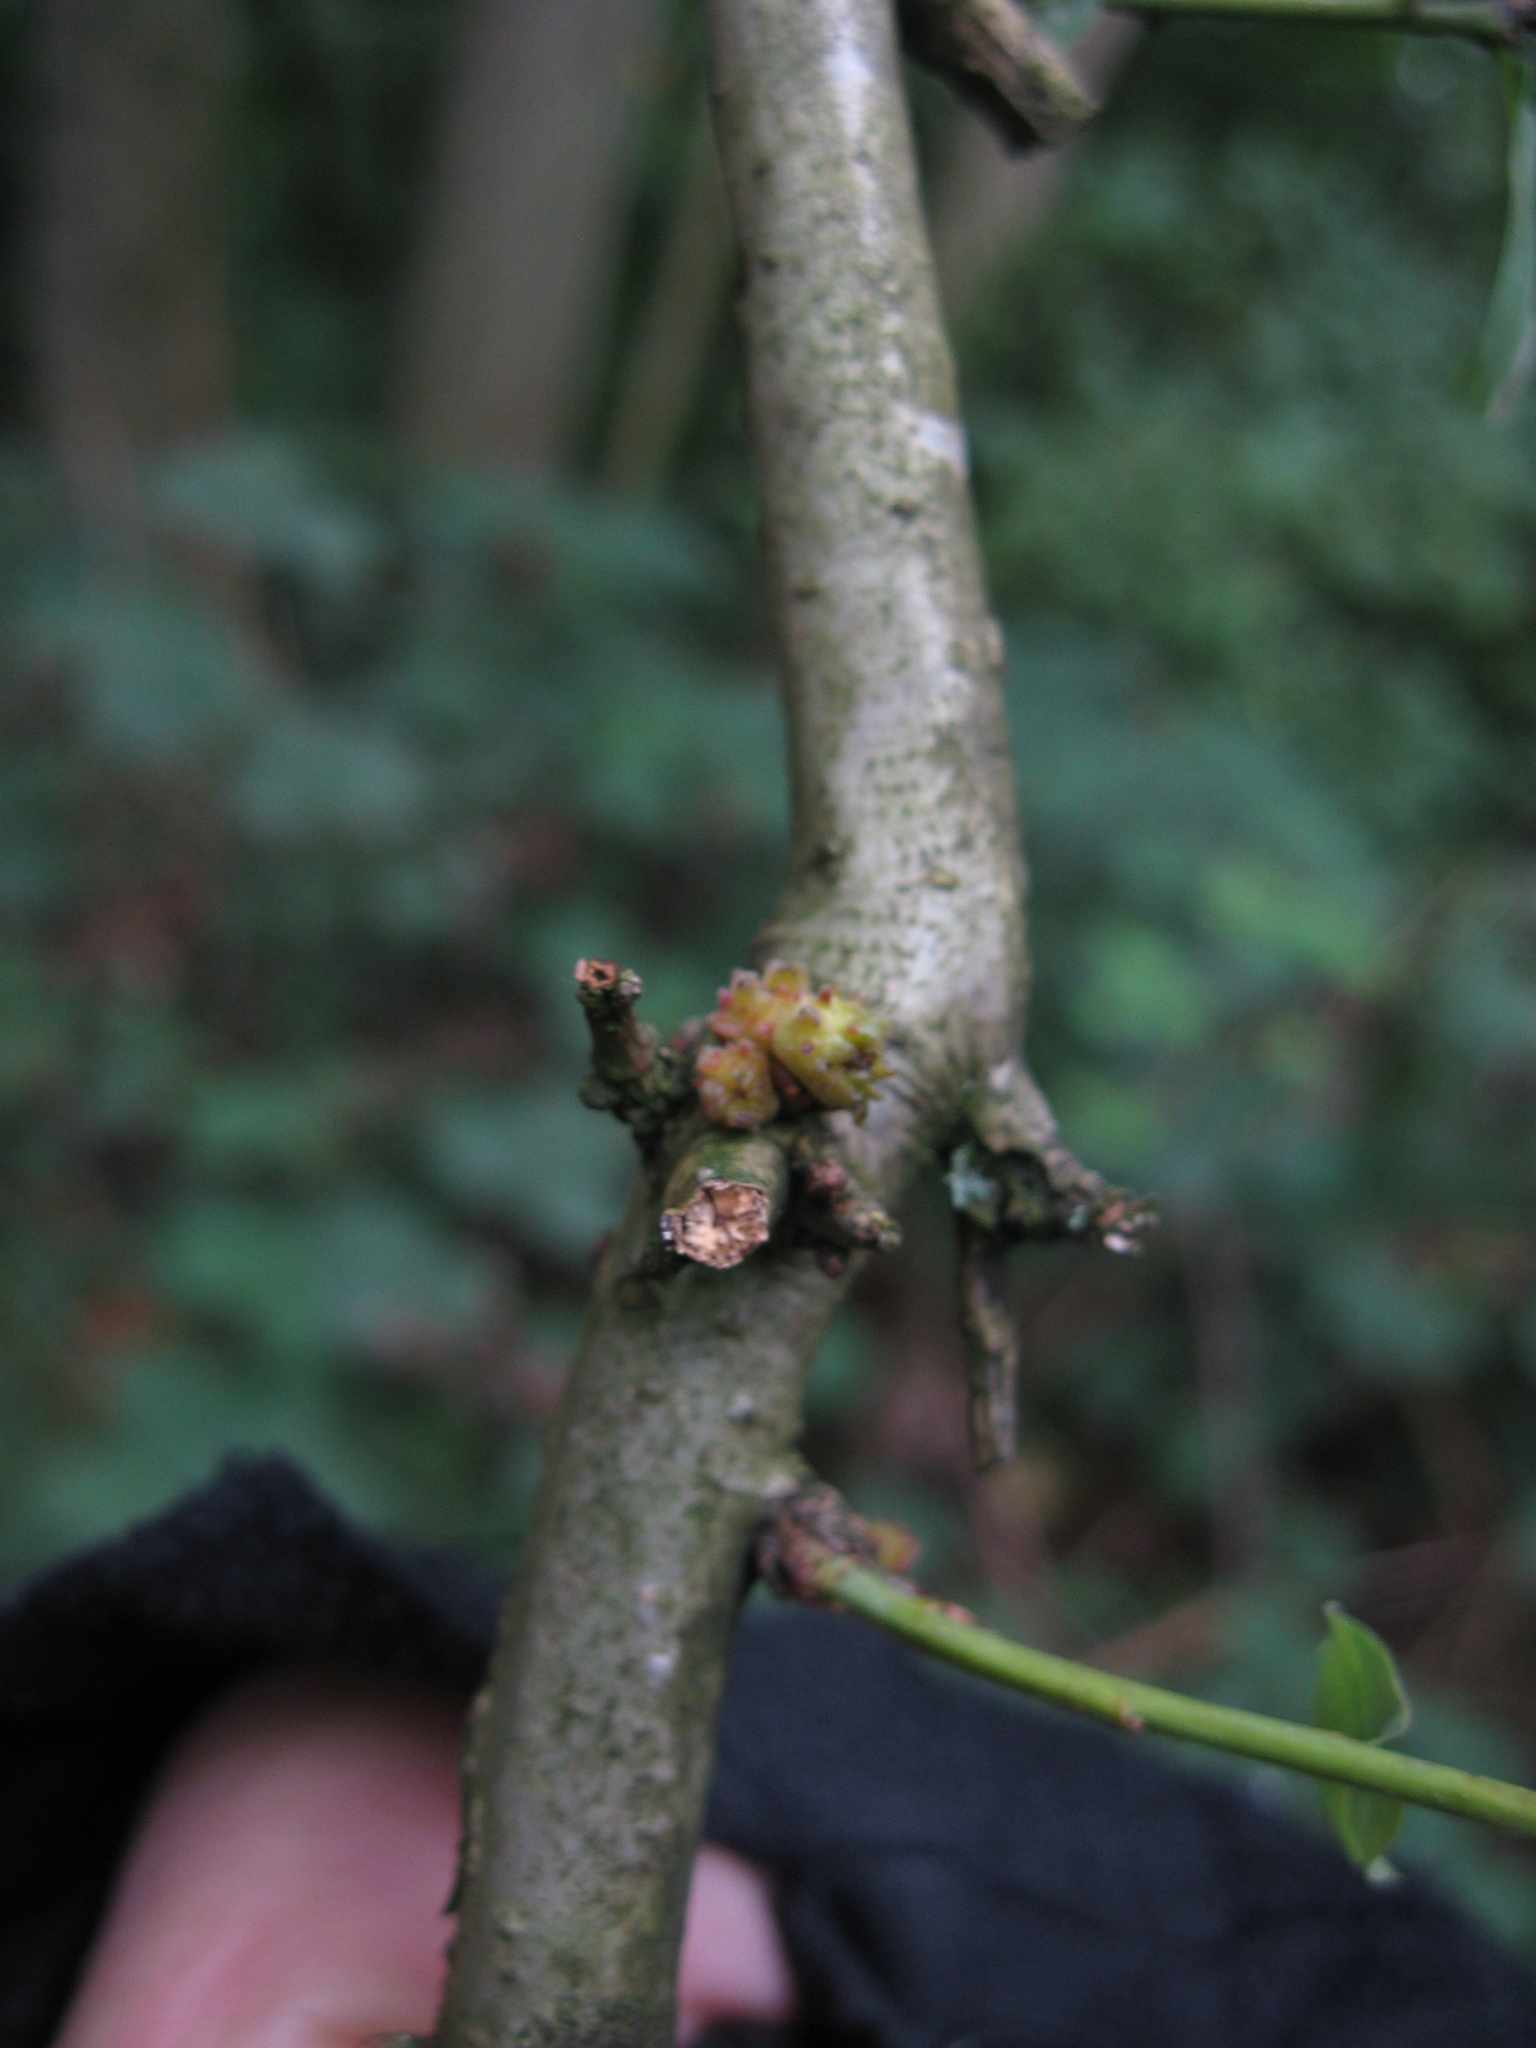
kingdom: Animalia
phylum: Arthropoda
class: Insecta
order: Hymenoptera
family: Cynipidae
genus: Andricus
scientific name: Andricus gemmeus
